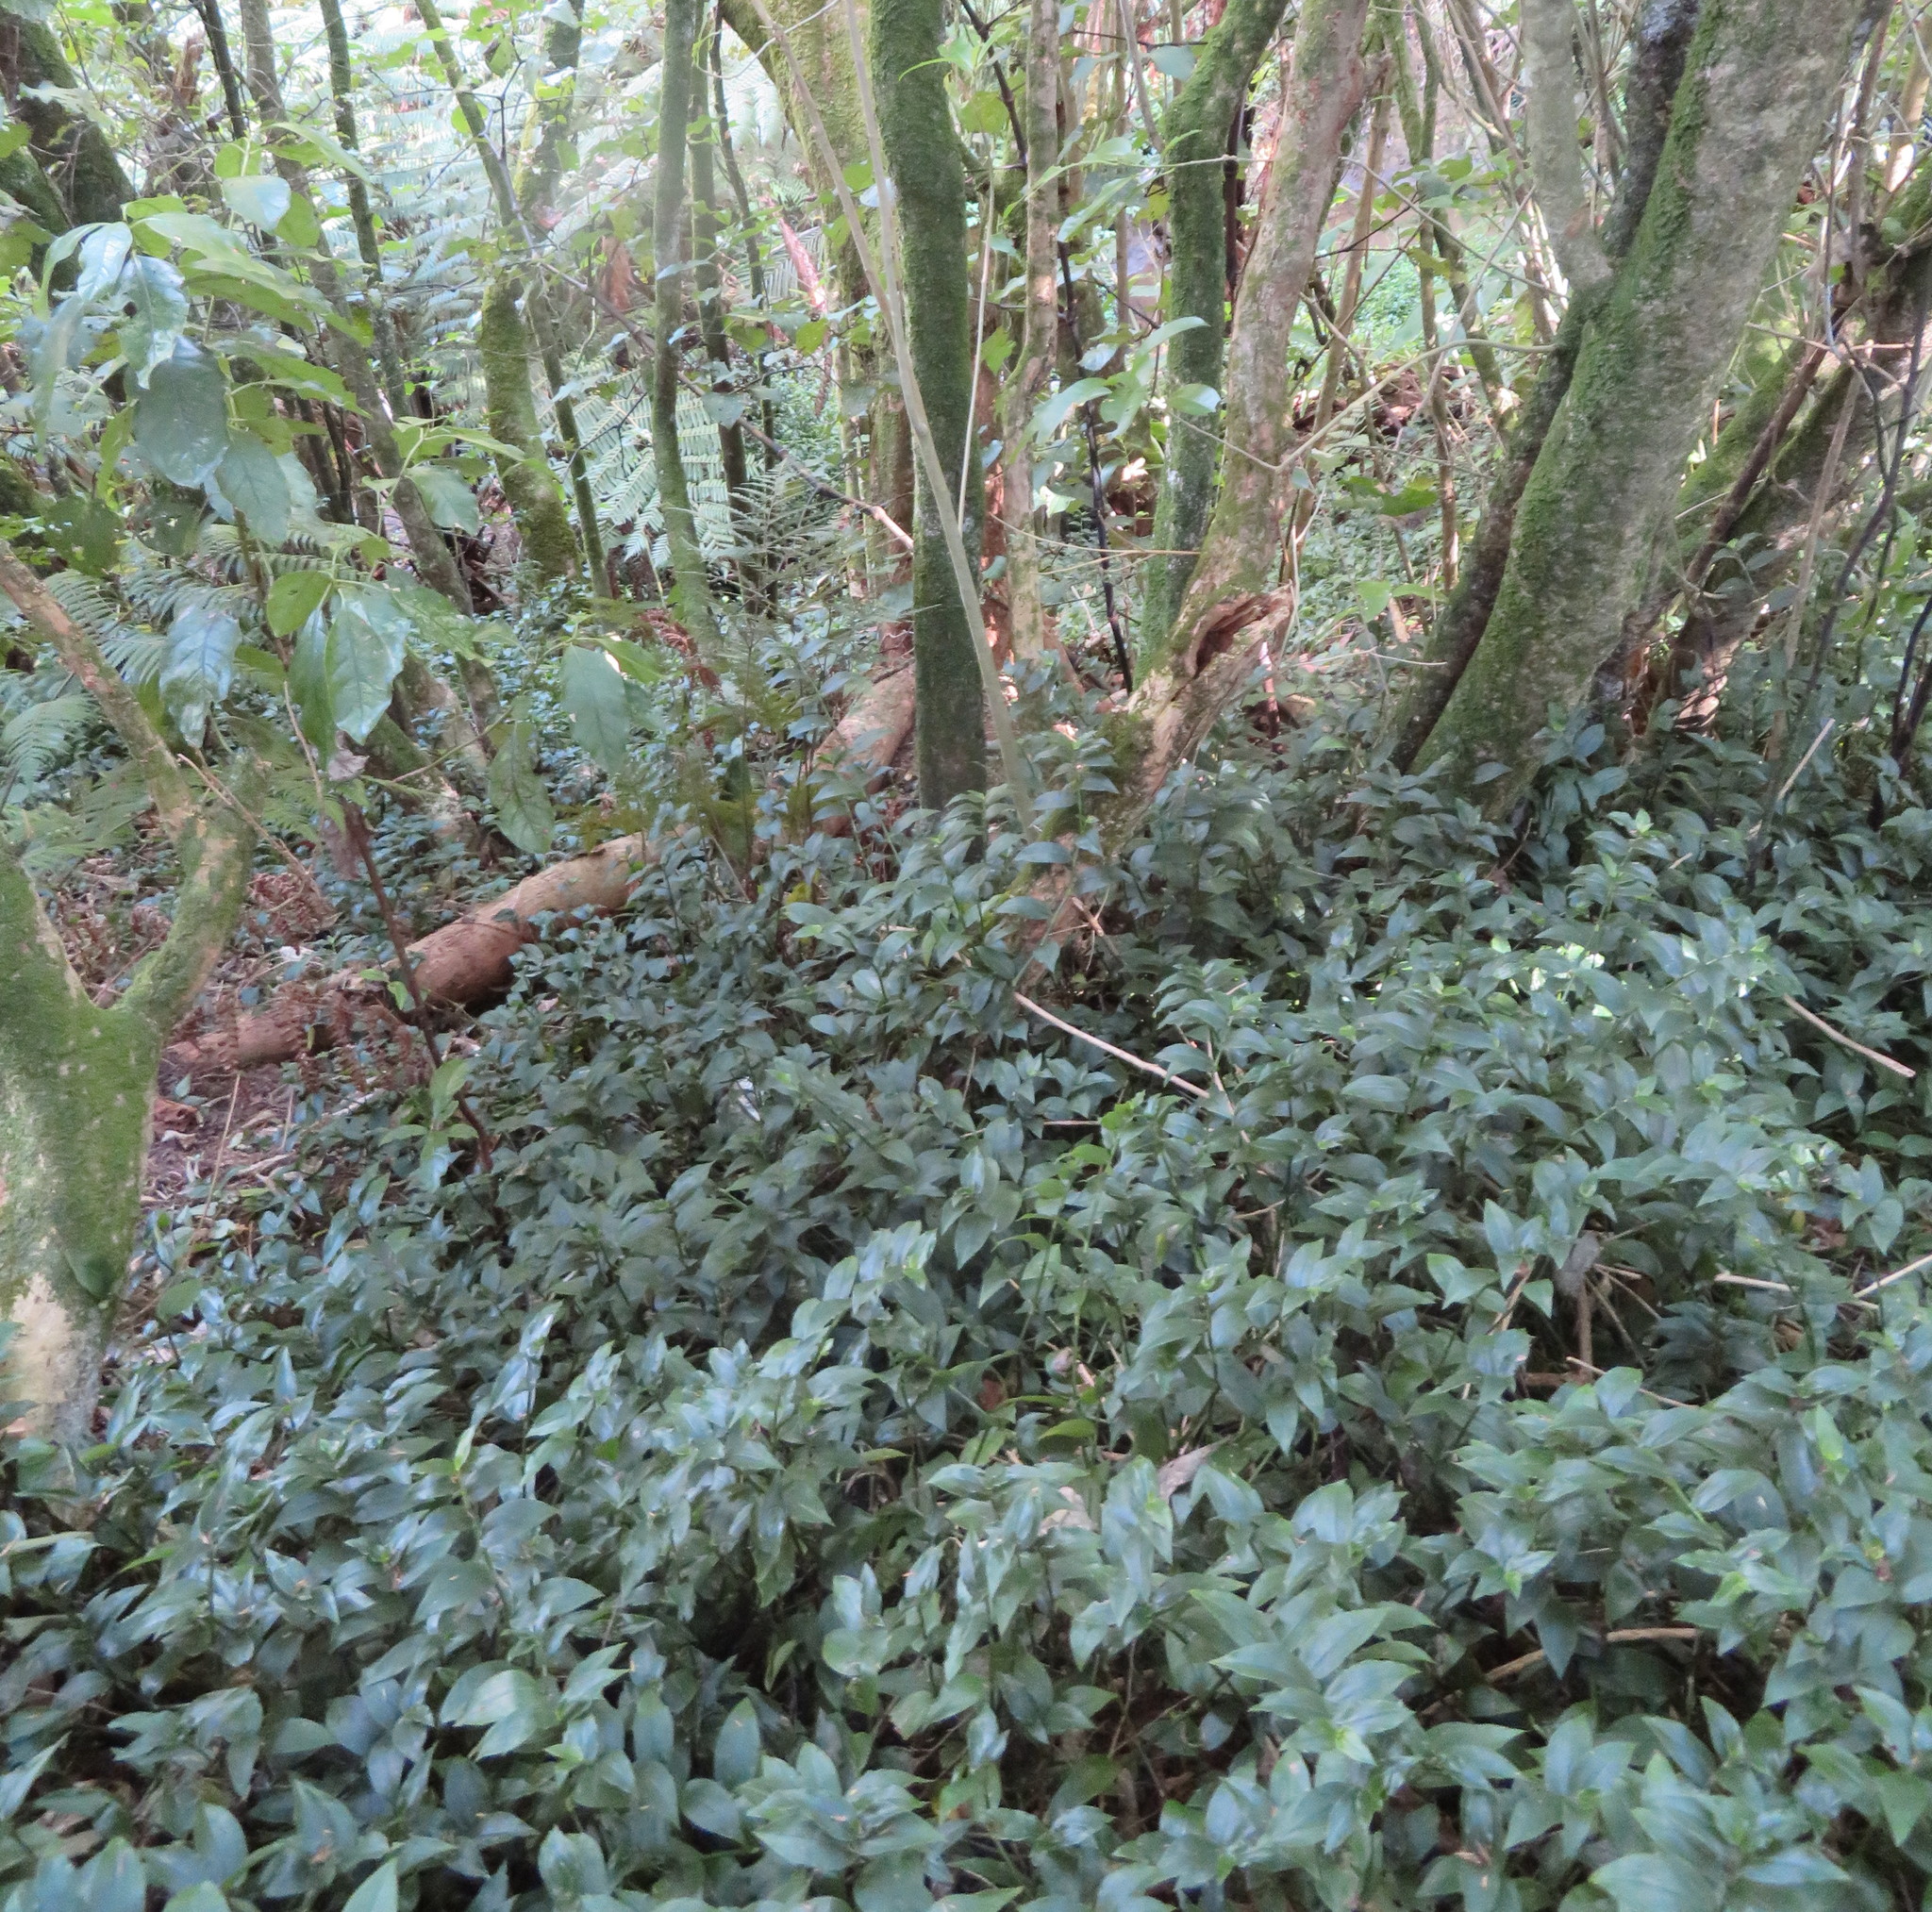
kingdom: Plantae
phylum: Tracheophyta
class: Magnoliopsida
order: Gentianales
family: Rubiaceae
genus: Coprosma
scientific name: Coprosma autumnalis
